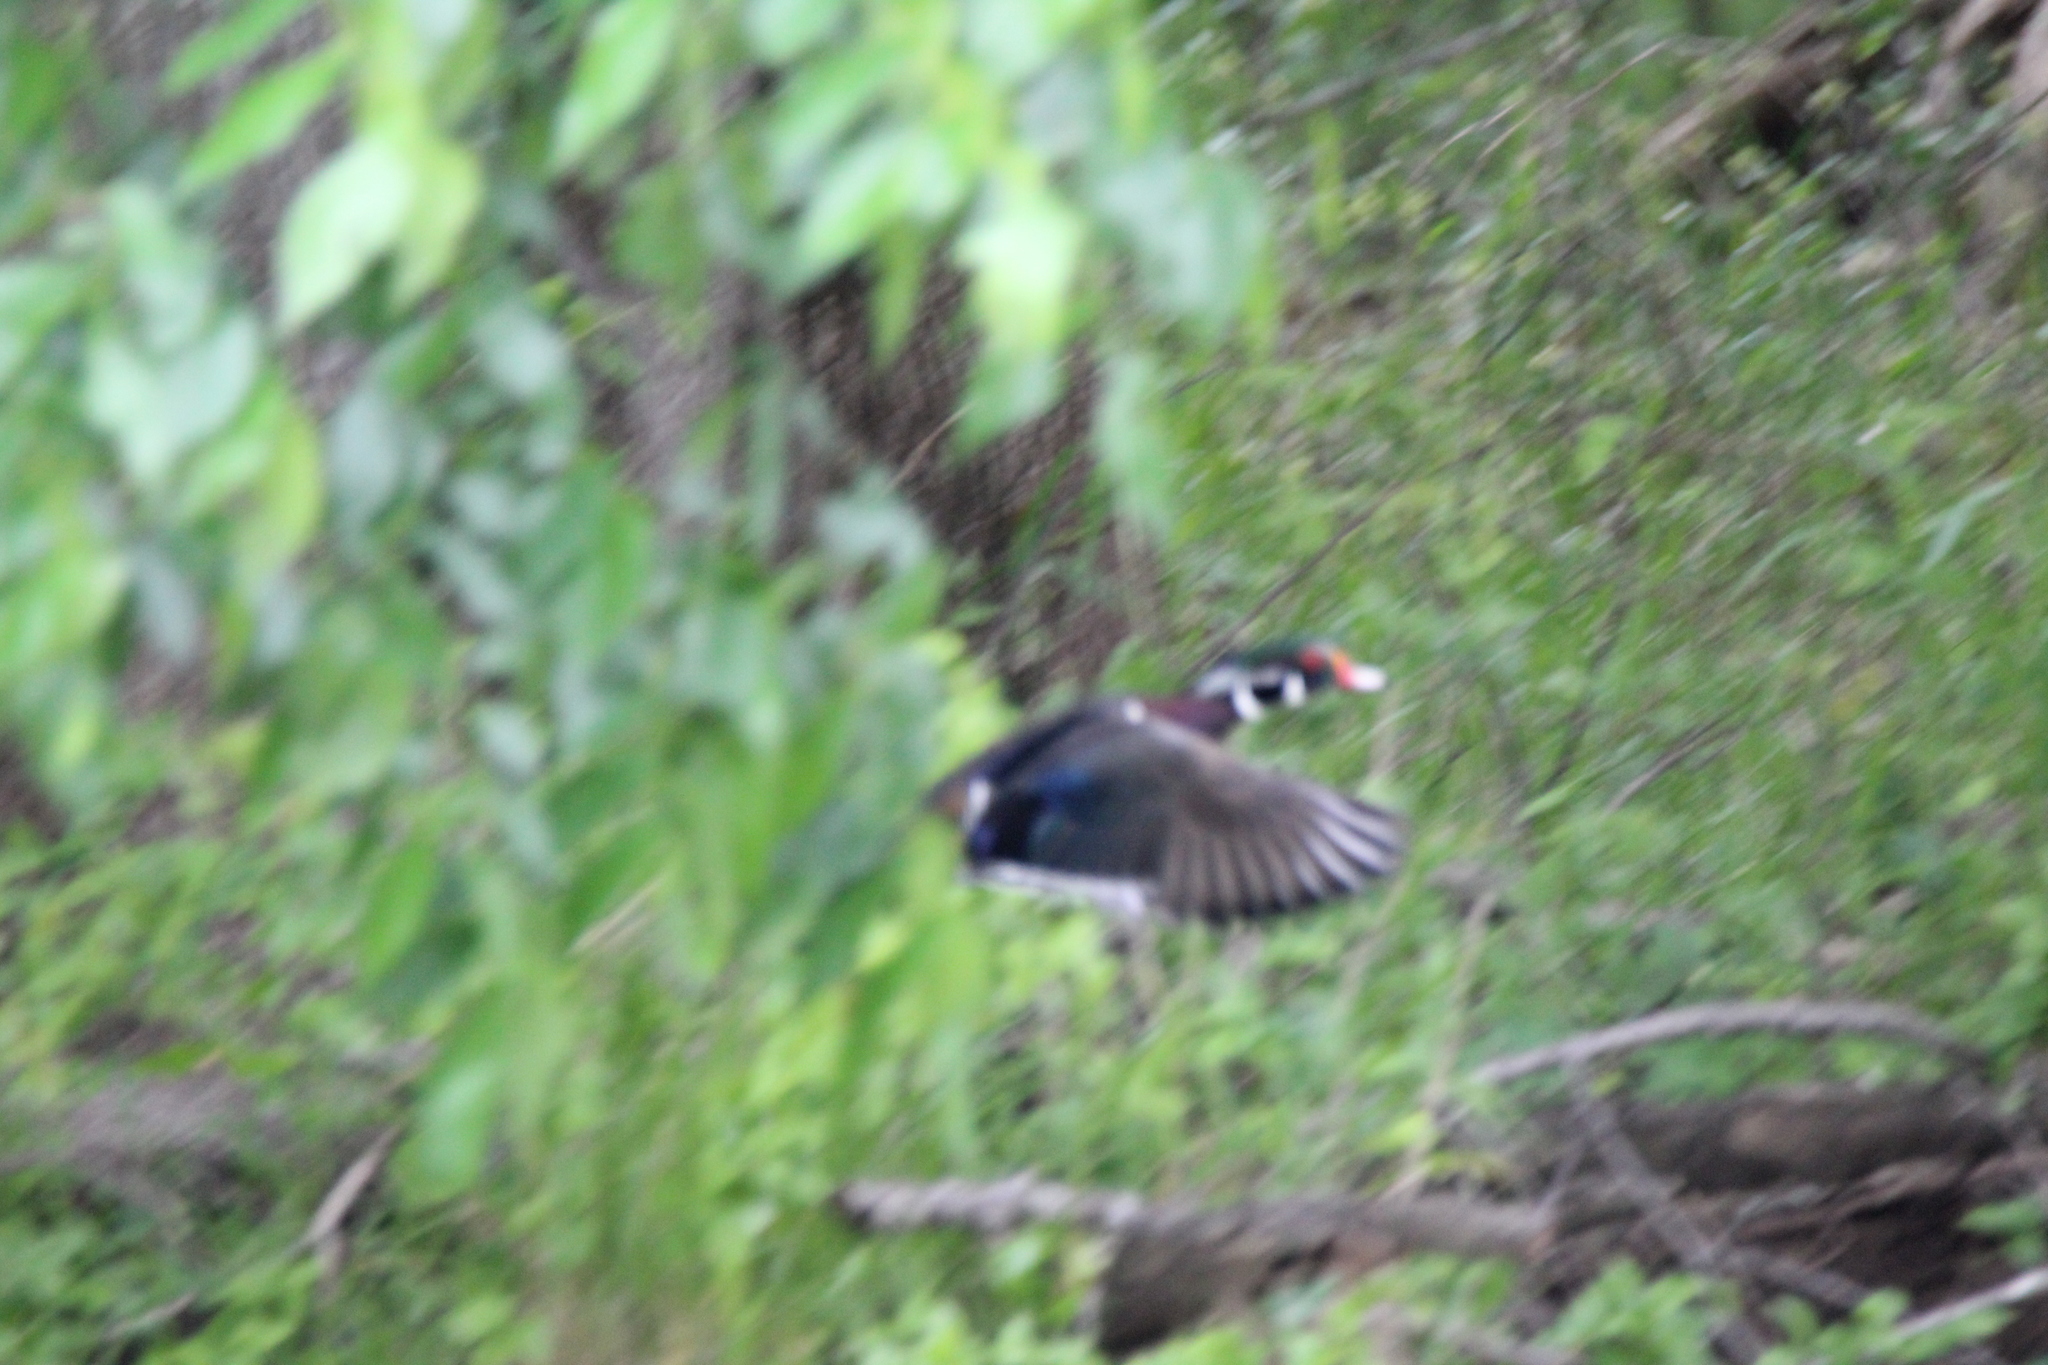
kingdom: Animalia
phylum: Chordata
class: Aves
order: Anseriformes
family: Anatidae
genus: Aix
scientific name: Aix sponsa
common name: Wood duck
